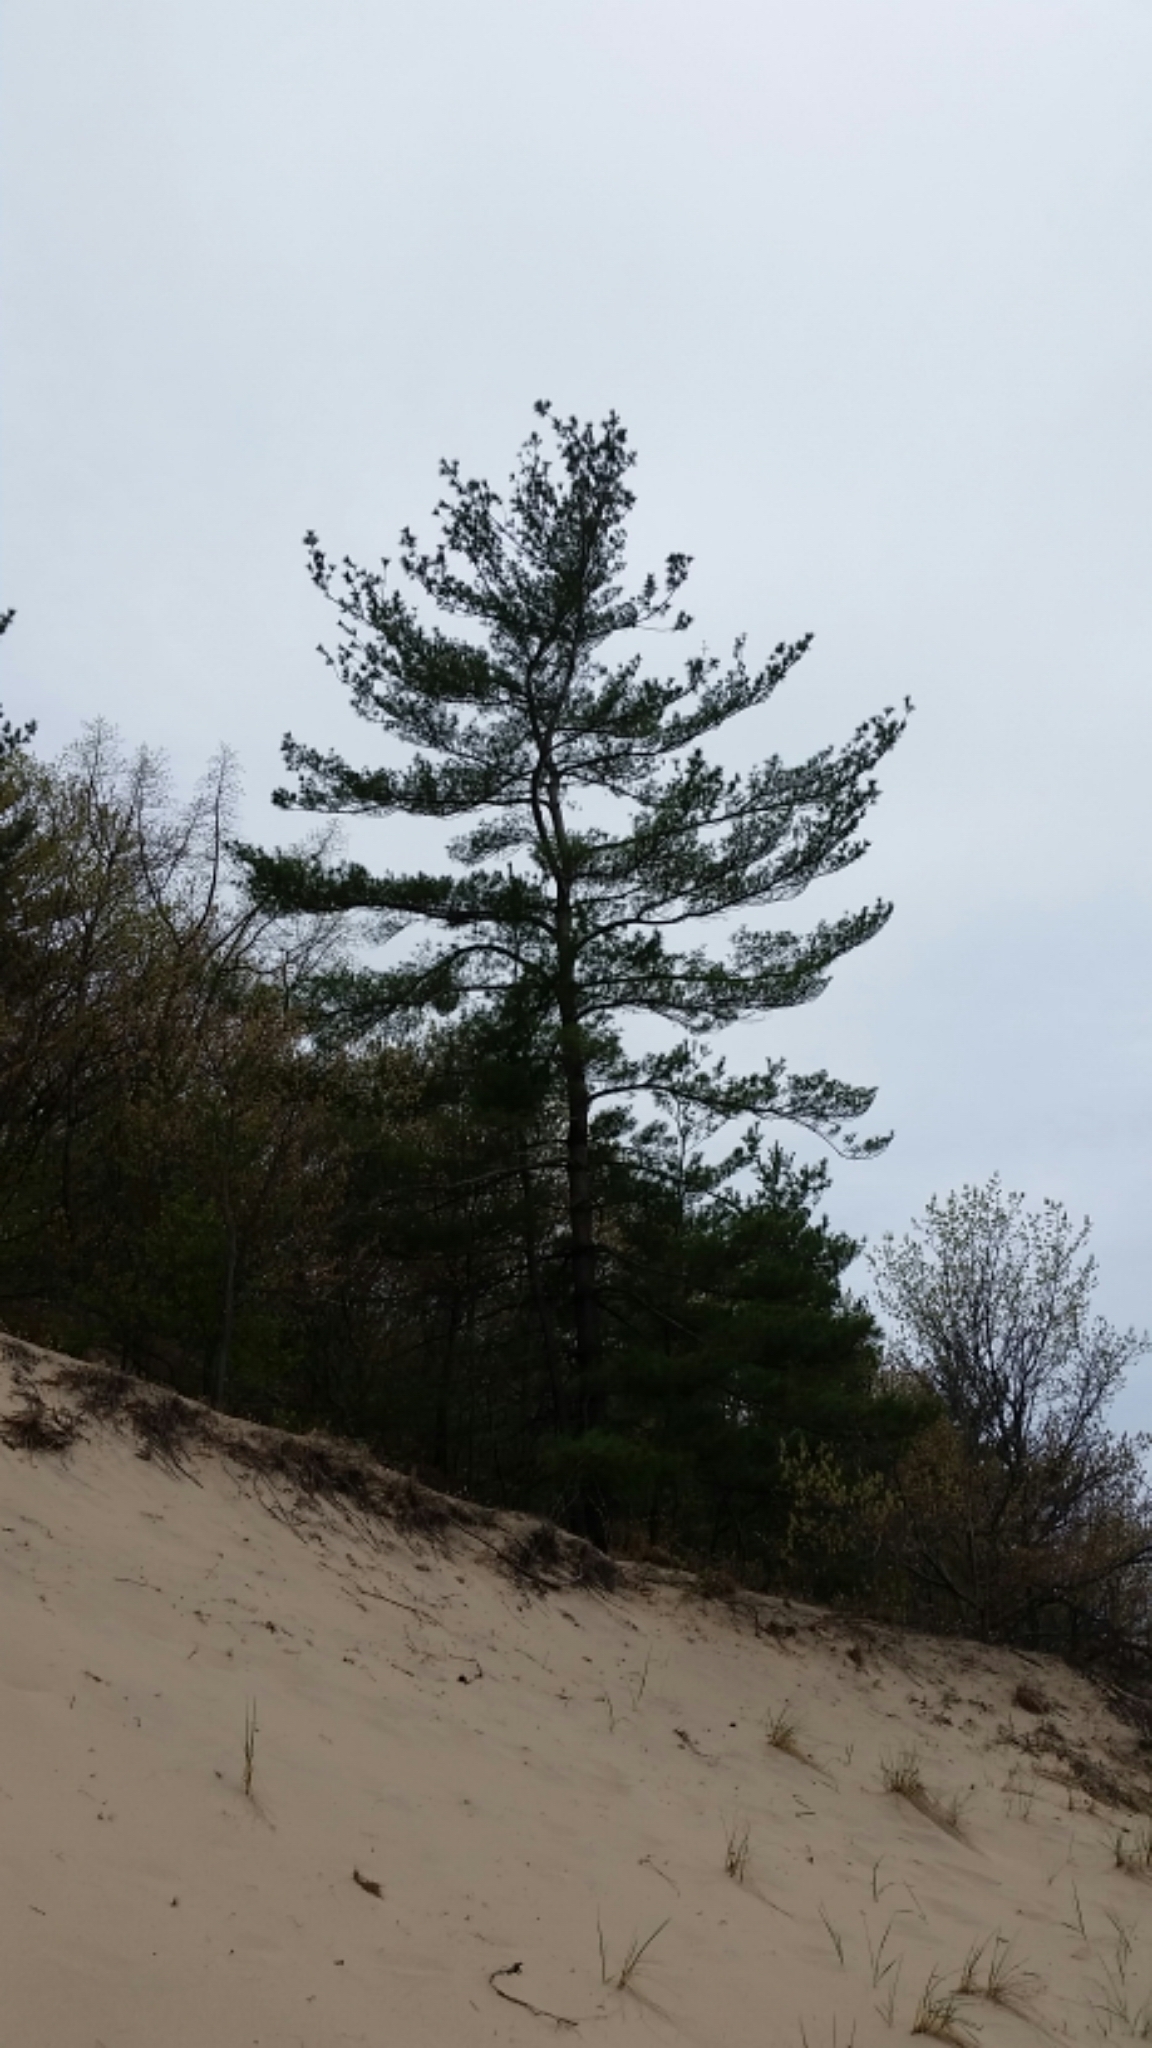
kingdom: Plantae
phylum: Tracheophyta
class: Pinopsida
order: Pinales
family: Pinaceae
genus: Pinus
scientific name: Pinus strobus
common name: Weymouth pine
